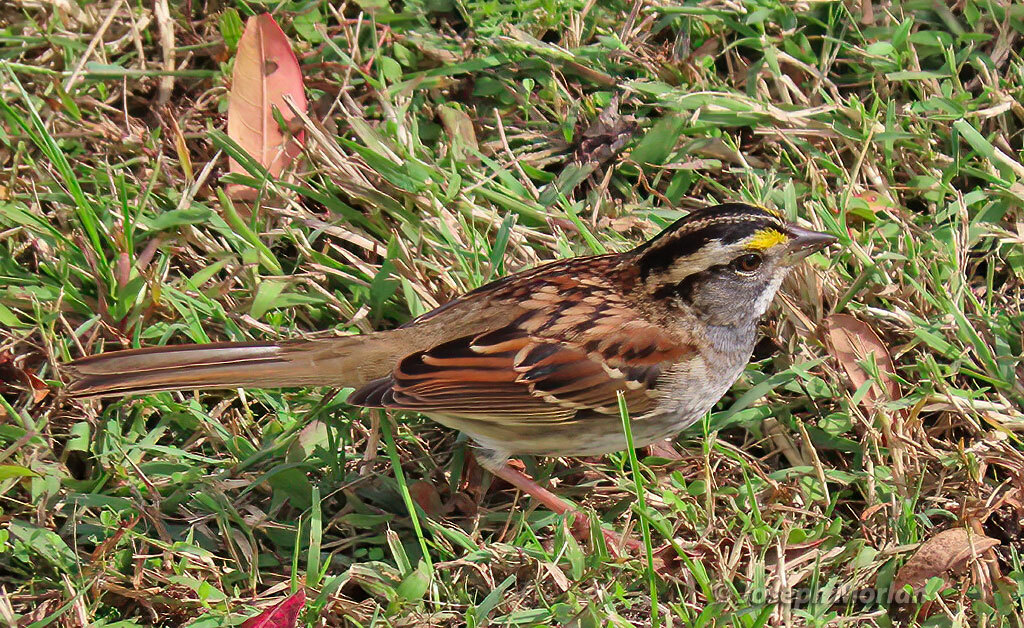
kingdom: Animalia
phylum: Chordata
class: Aves
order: Passeriformes
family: Passerellidae
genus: Zonotrichia
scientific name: Zonotrichia albicollis
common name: White-throated sparrow
